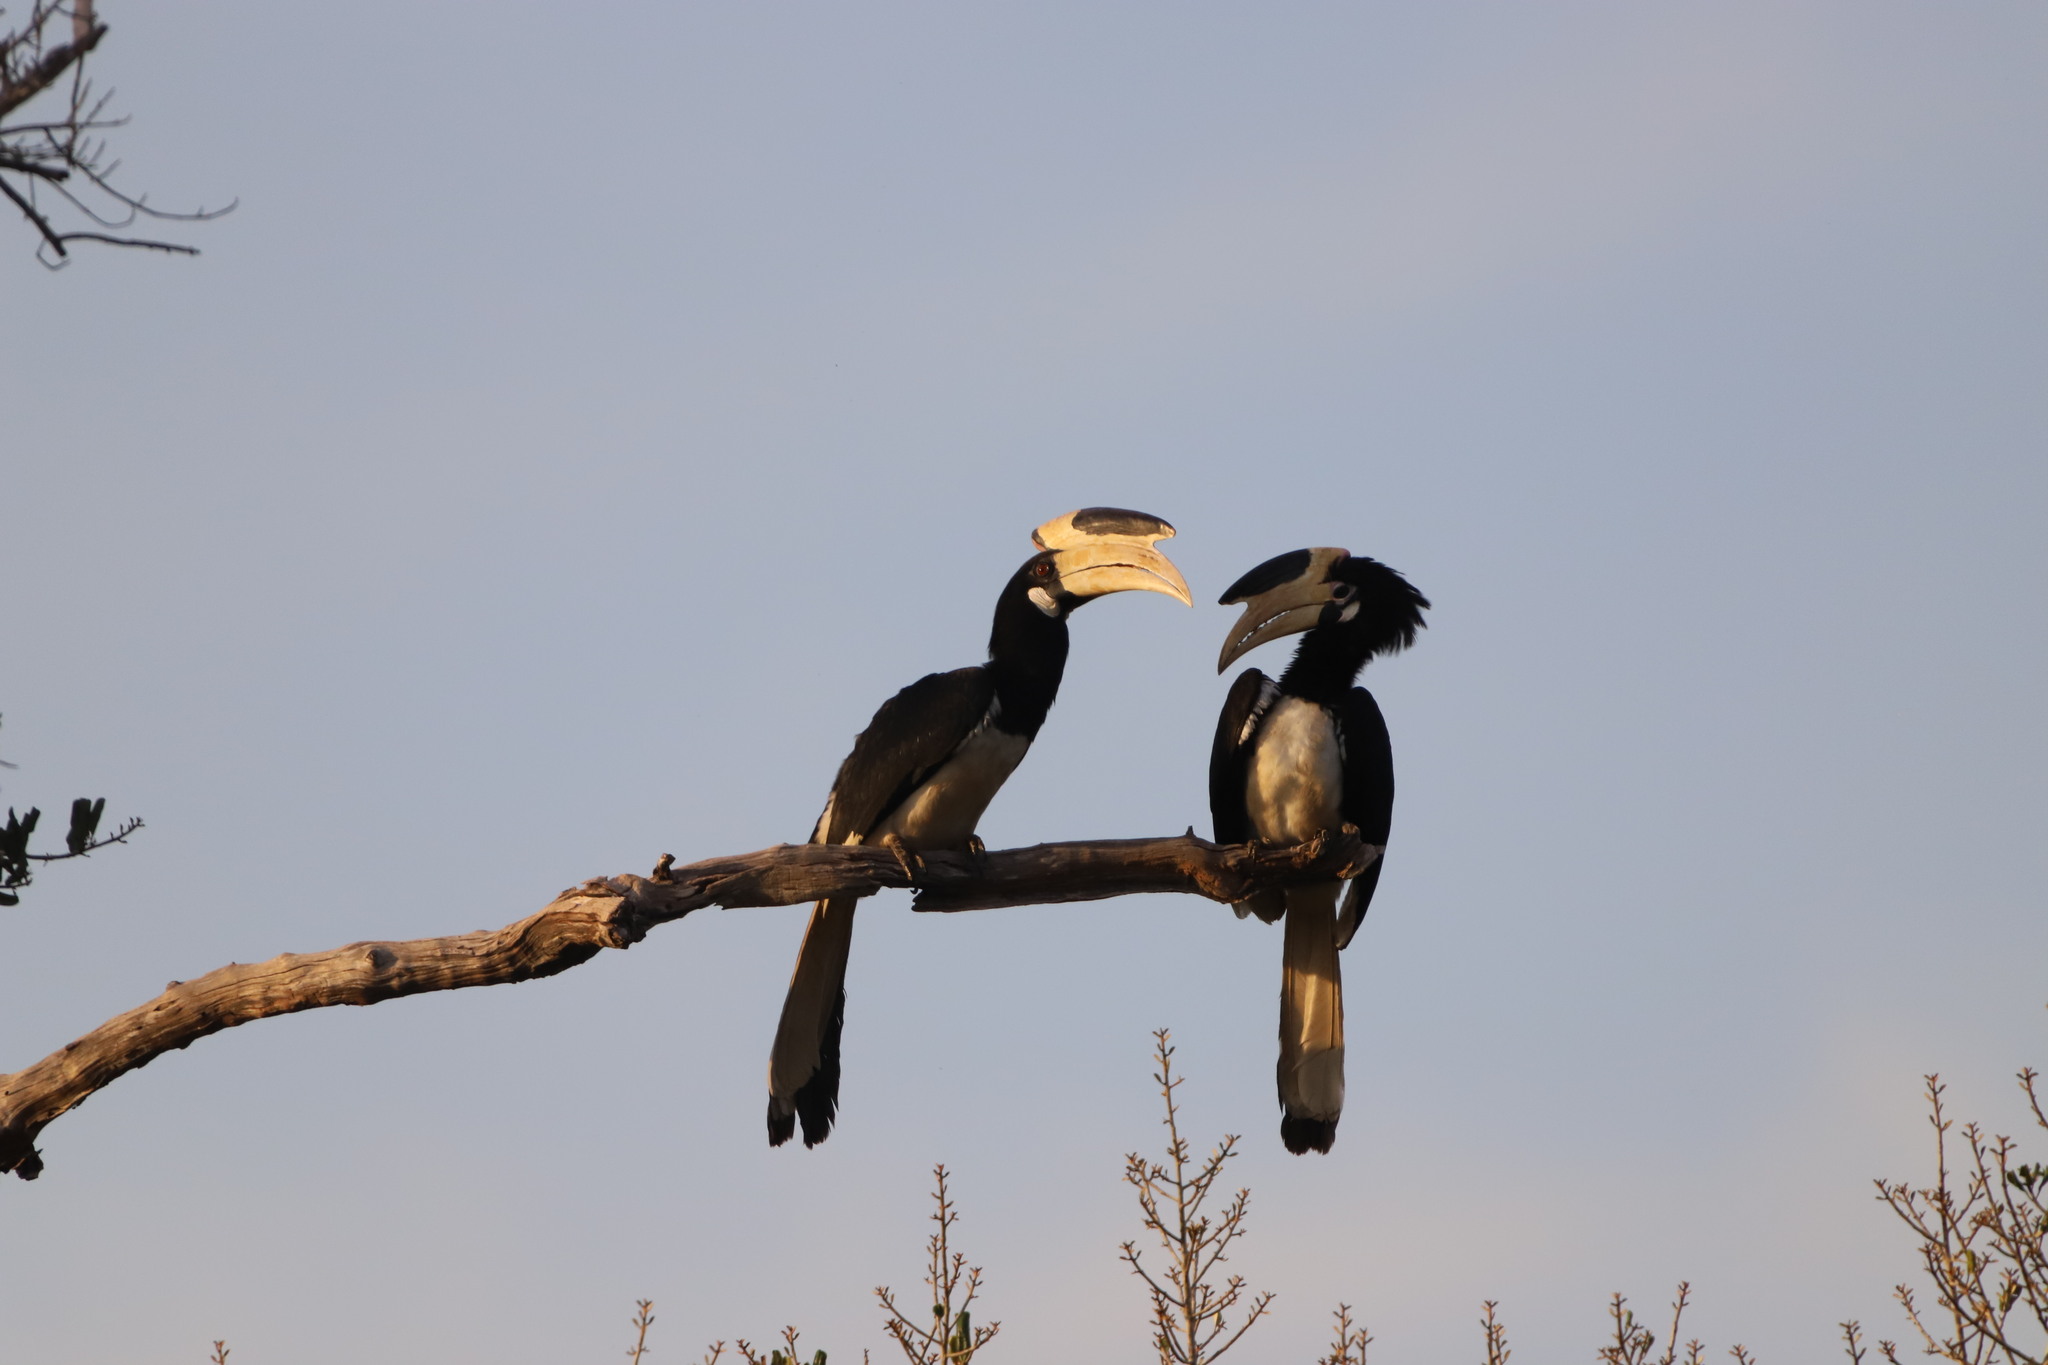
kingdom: Animalia
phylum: Chordata
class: Aves
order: Bucerotiformes
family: Bucerotidae
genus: Anthracoceros
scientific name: Anthracoceros coronatus
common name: Malabar pied hornbill
